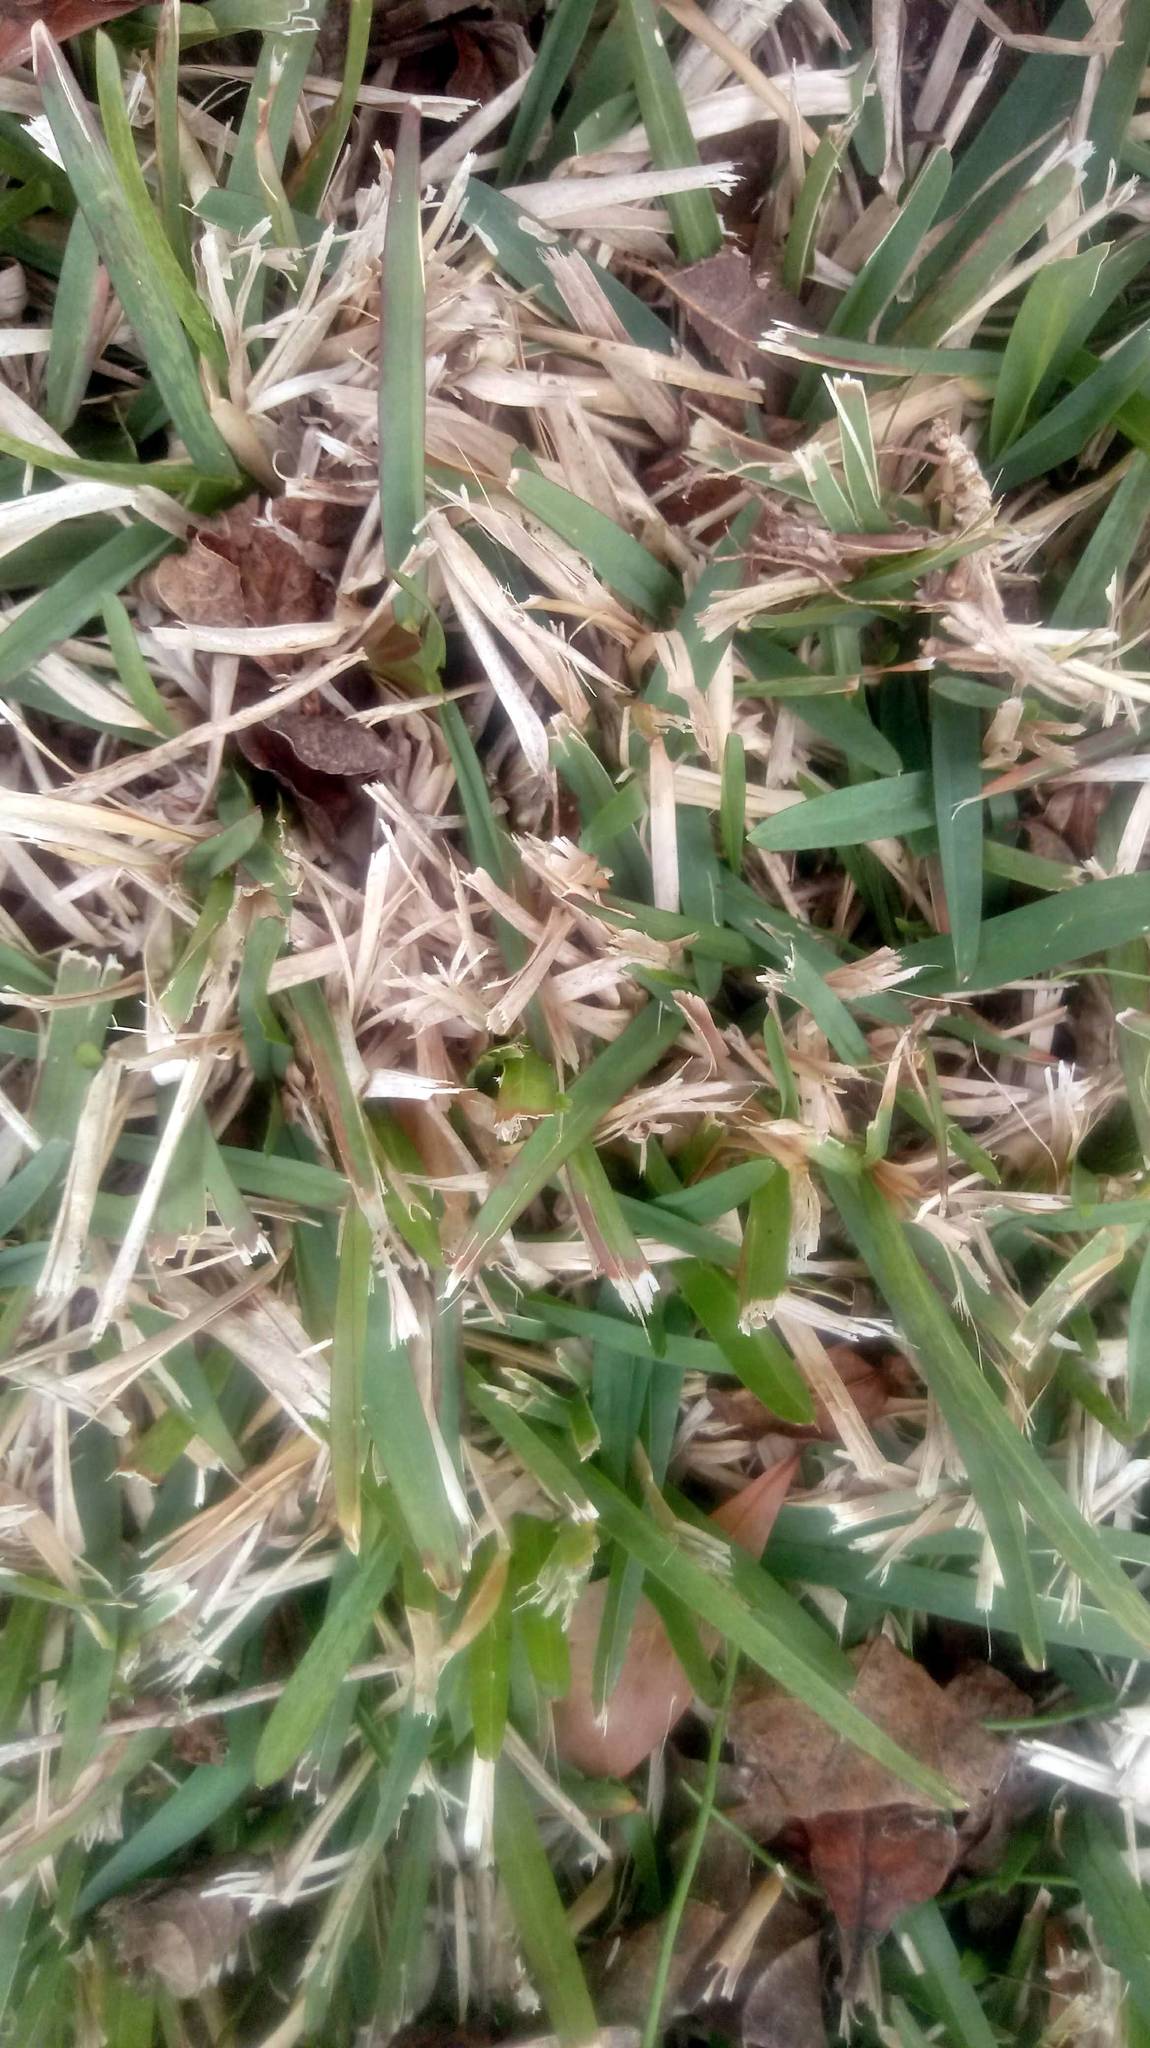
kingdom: Plantae
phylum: Tracheophyta
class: Liliopsida
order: Poales
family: Poaceae
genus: Stenotaphrum
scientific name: Stenotaphrum secundatum
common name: St. augustine grass
